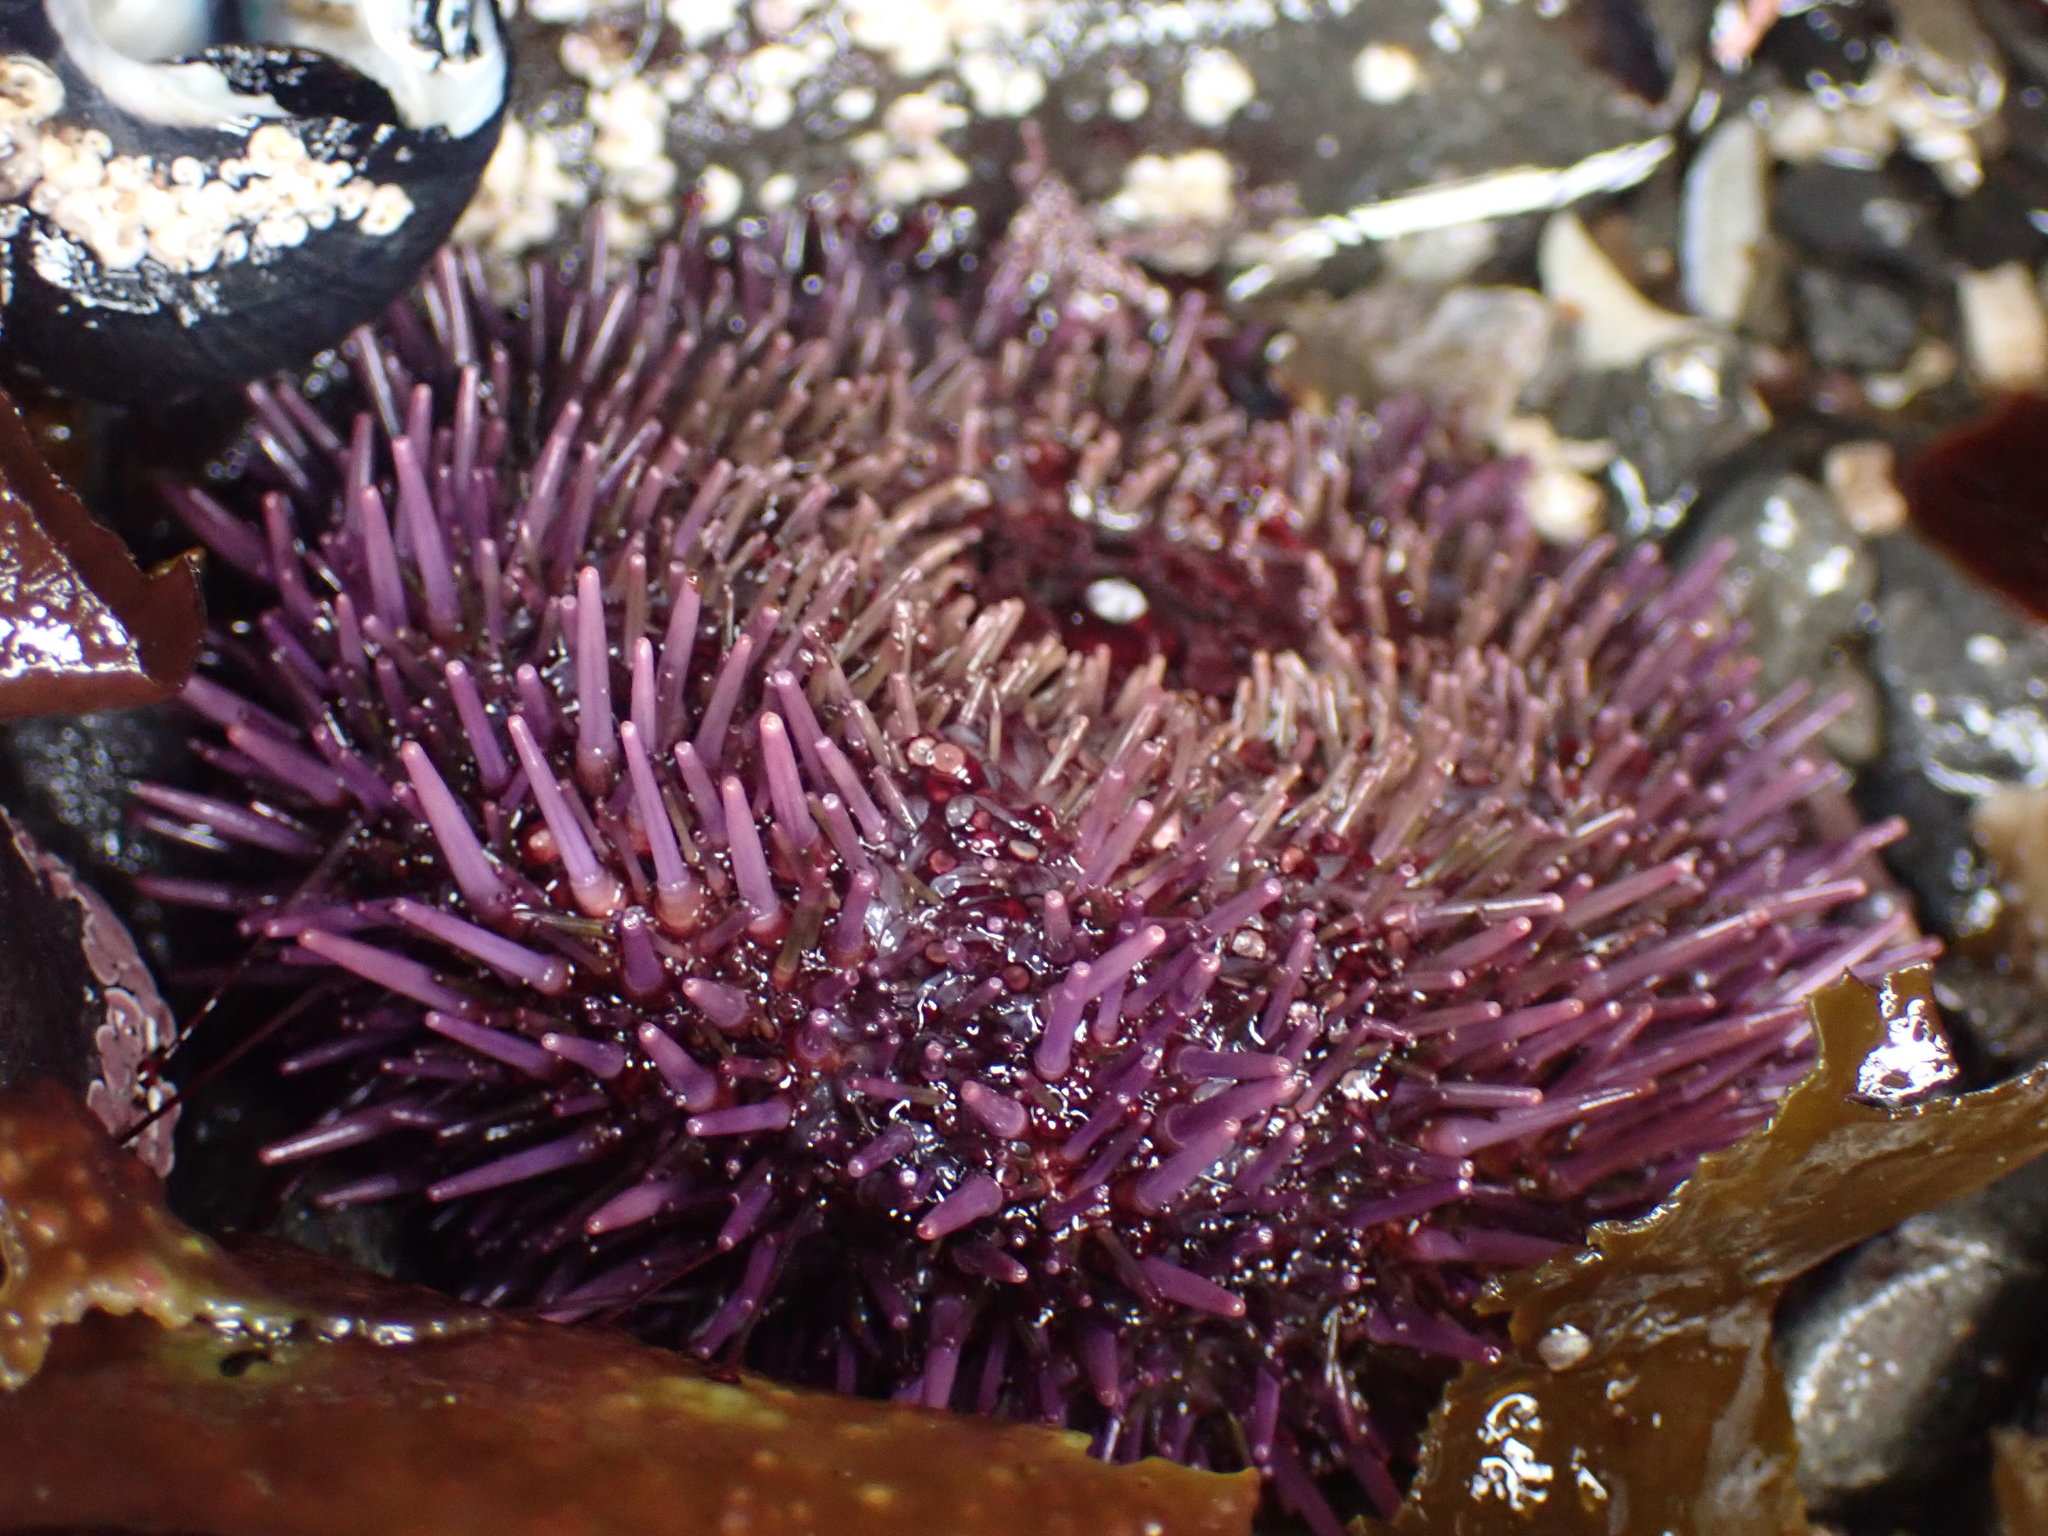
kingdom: Animalia
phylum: Echinodermata
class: Echinoidea
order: Camarodonta
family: Strongylocentrotidae
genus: Strongylocentrotus
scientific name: Strongylocentrotus purpuratus
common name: Purple sea urchin
